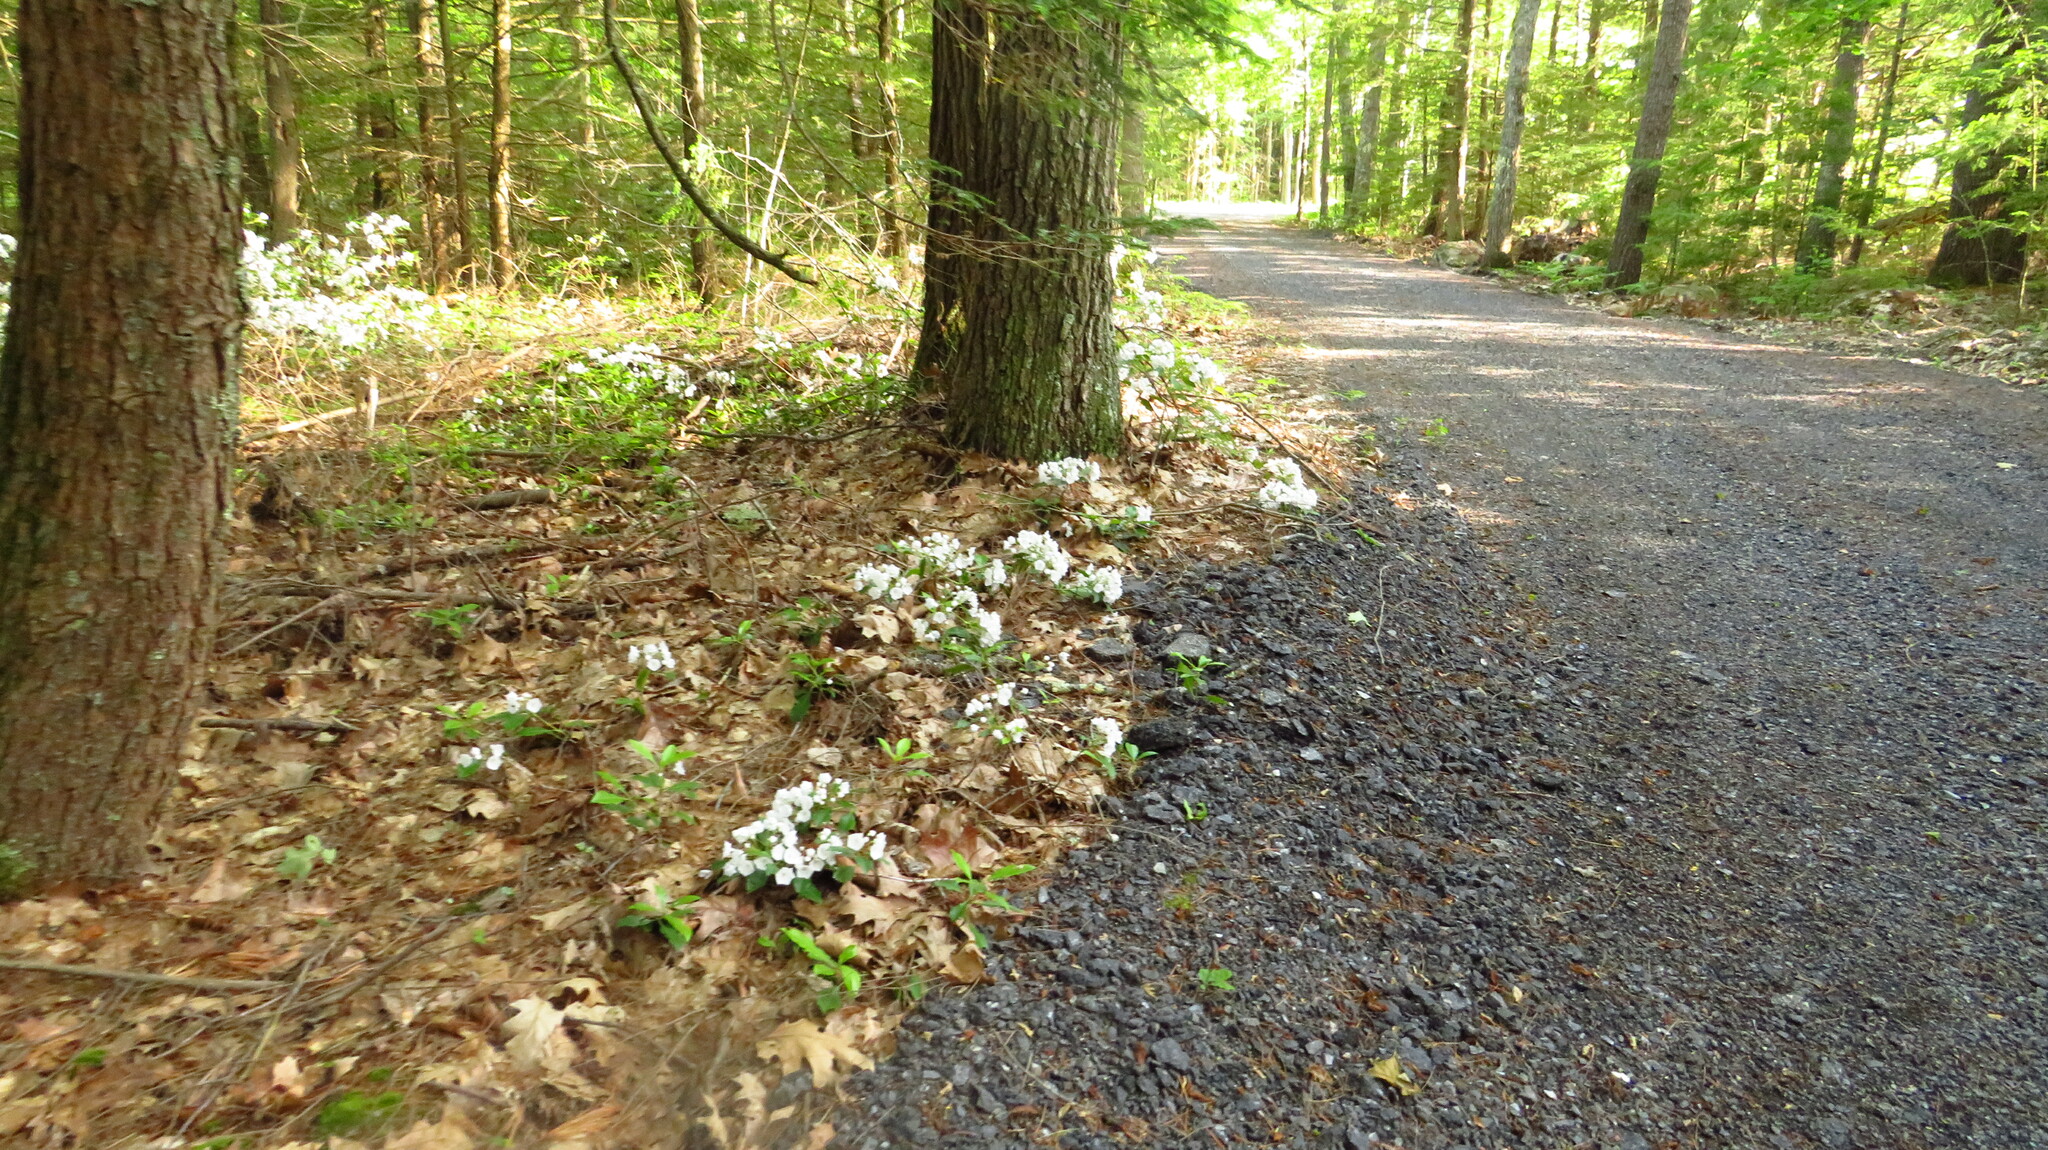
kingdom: Plantae
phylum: Tracheophyta
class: Magnoliopsida
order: Ericales
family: Ericaceae
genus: Kalmia
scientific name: Kalmia latifolia
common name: Mountain-laurel
